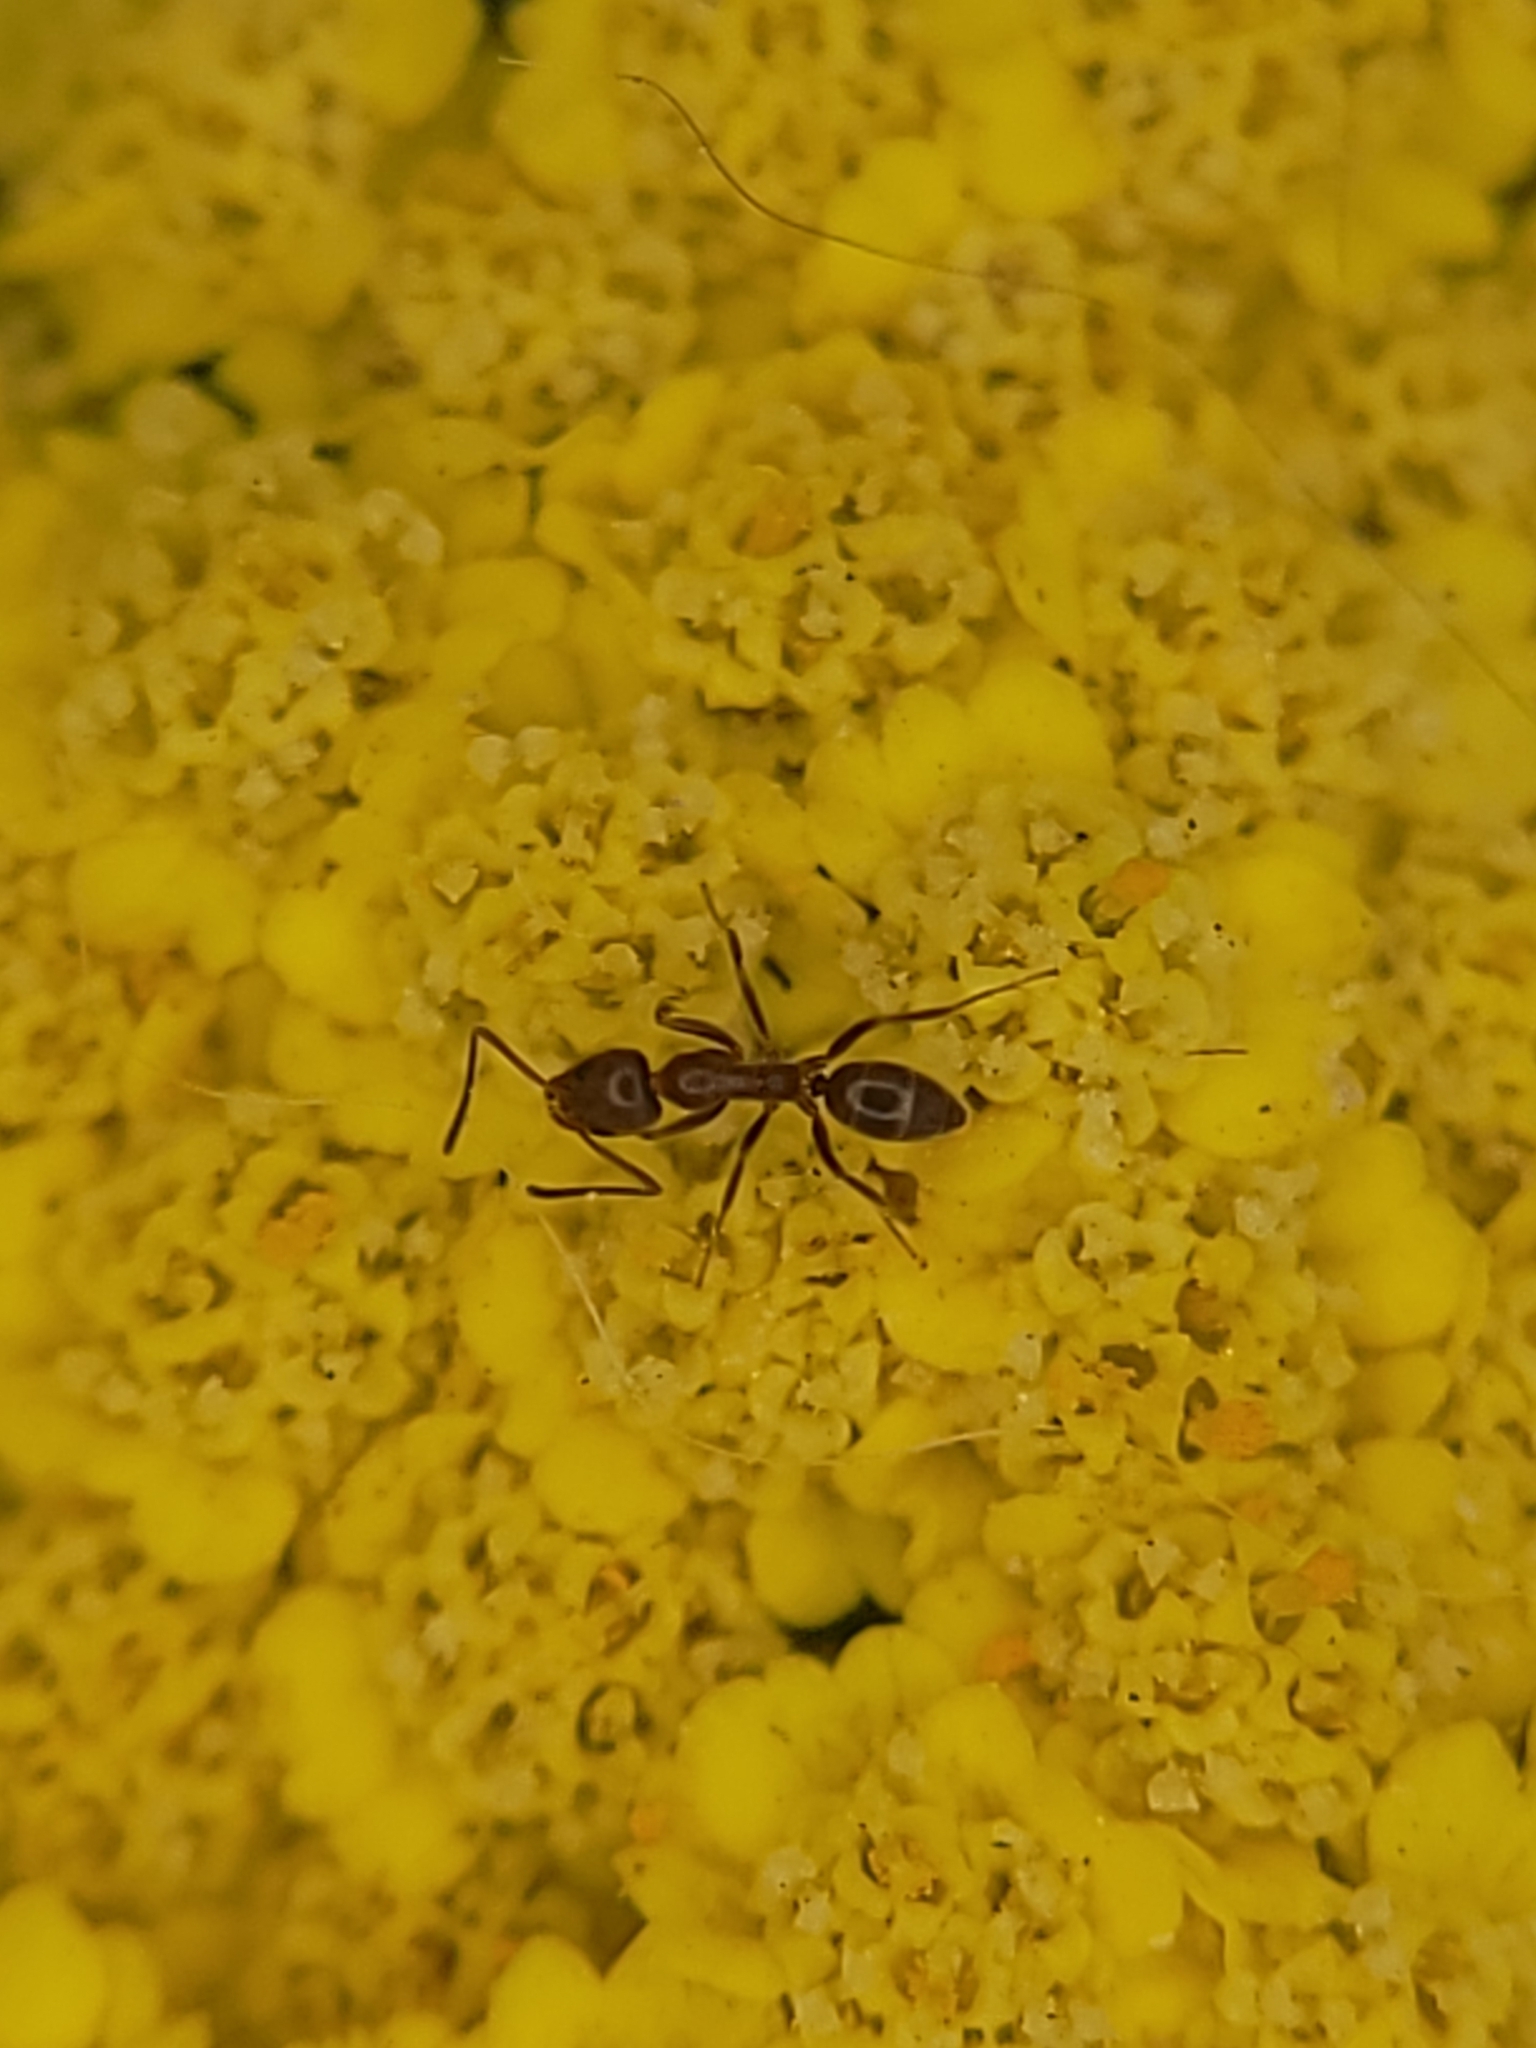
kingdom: Animalia
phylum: Arthropoda
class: Insecta
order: Hymenoptera
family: Formicidae
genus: Linepithema
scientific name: Linepithema humile
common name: Argentine ant
